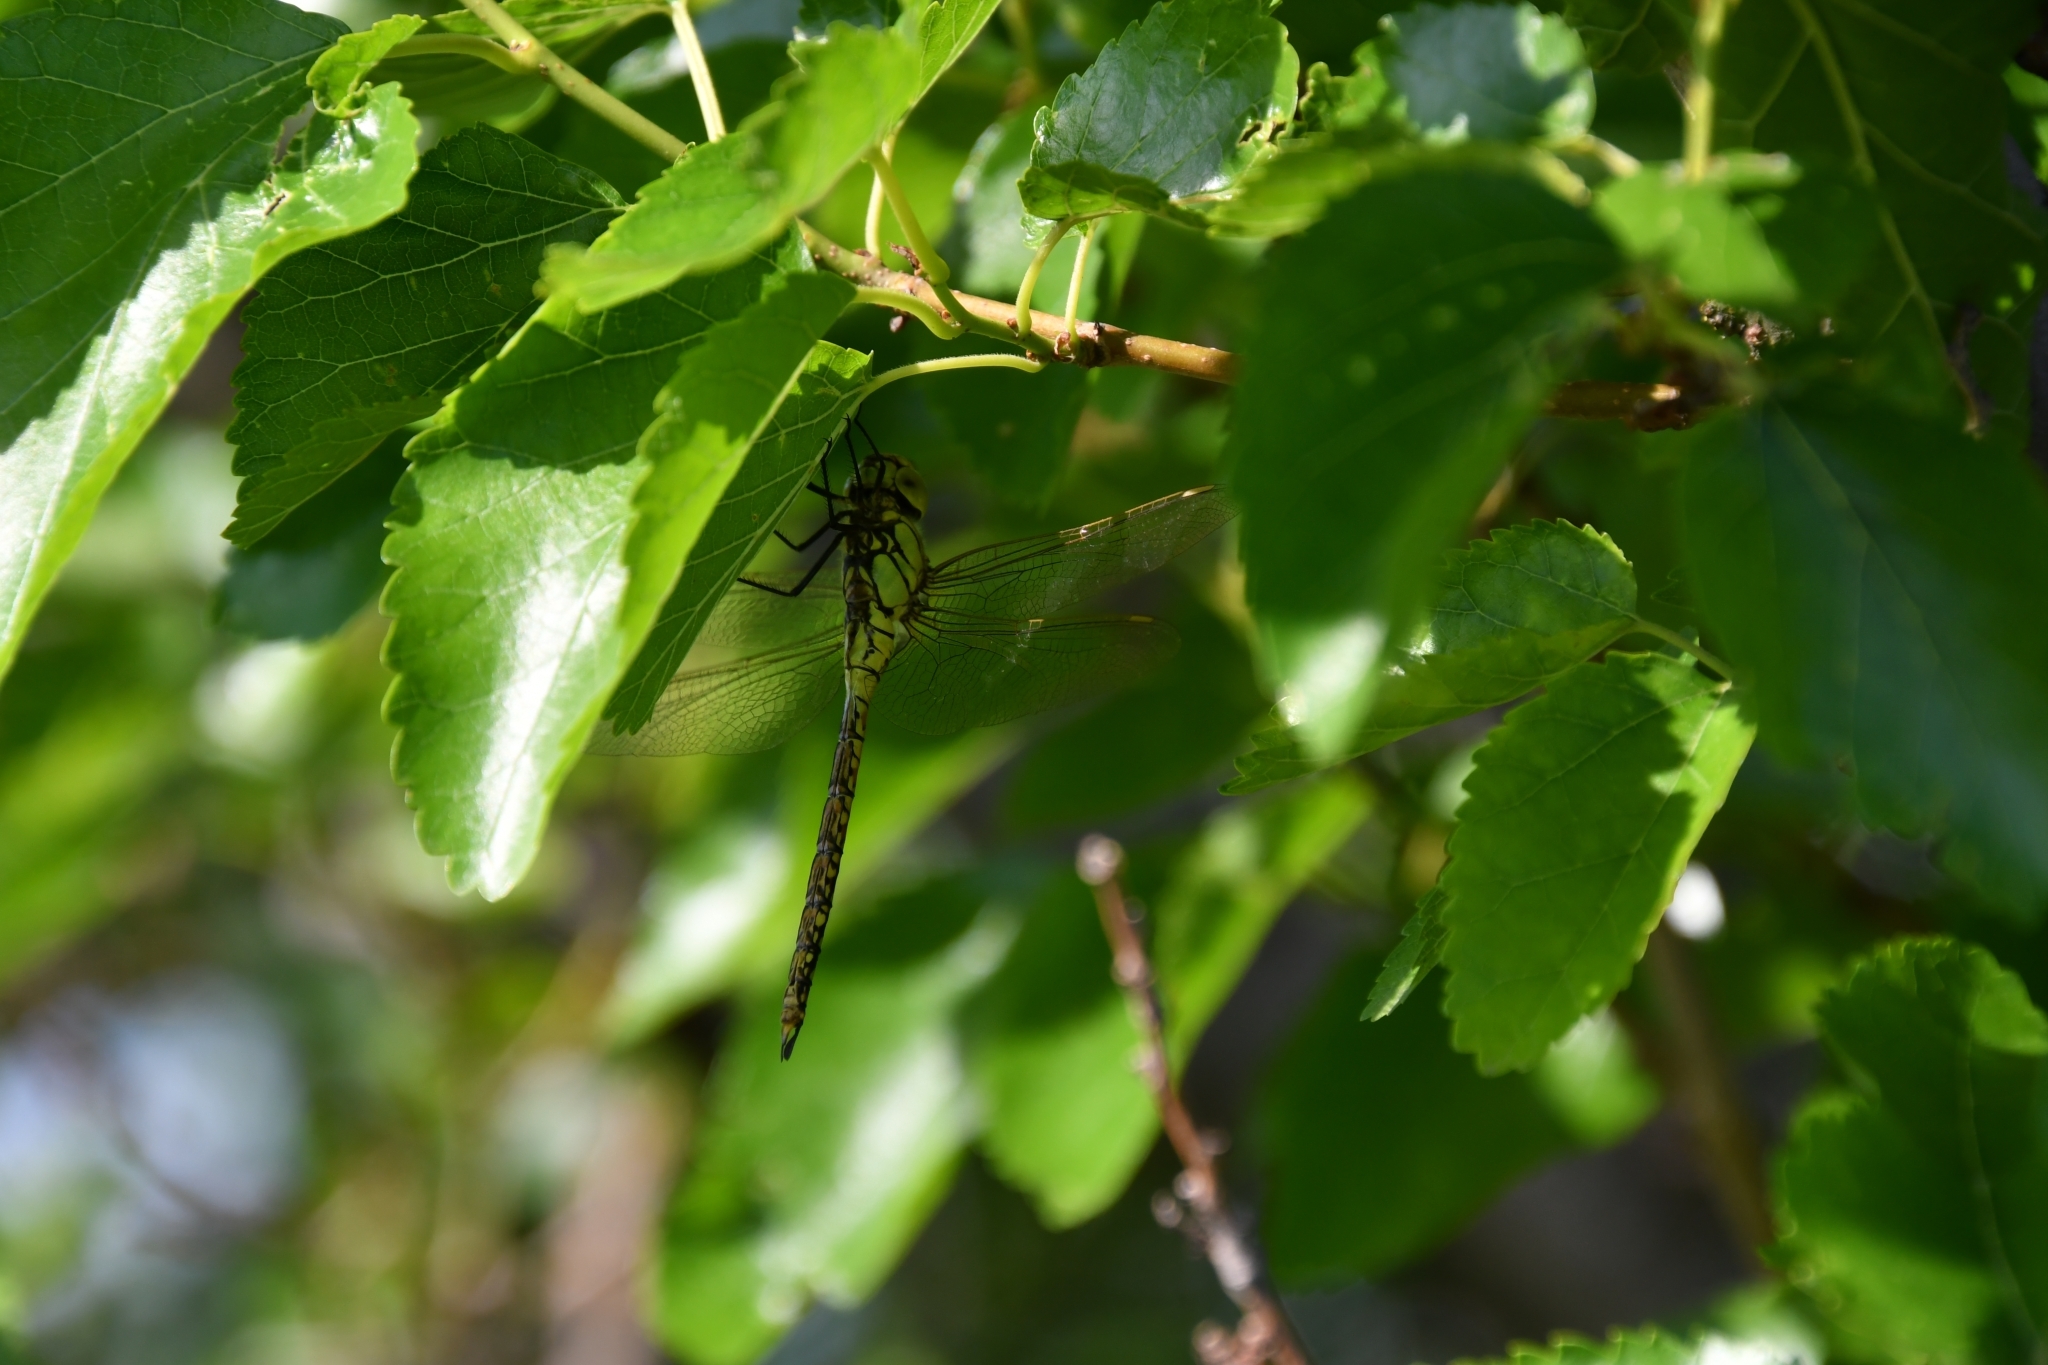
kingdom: Animalia
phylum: Arthropoda
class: Insecta
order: Odonata
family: Aeshnidae
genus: Aeshna
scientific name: Aeshna affinis
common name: Southern migrant hawker
